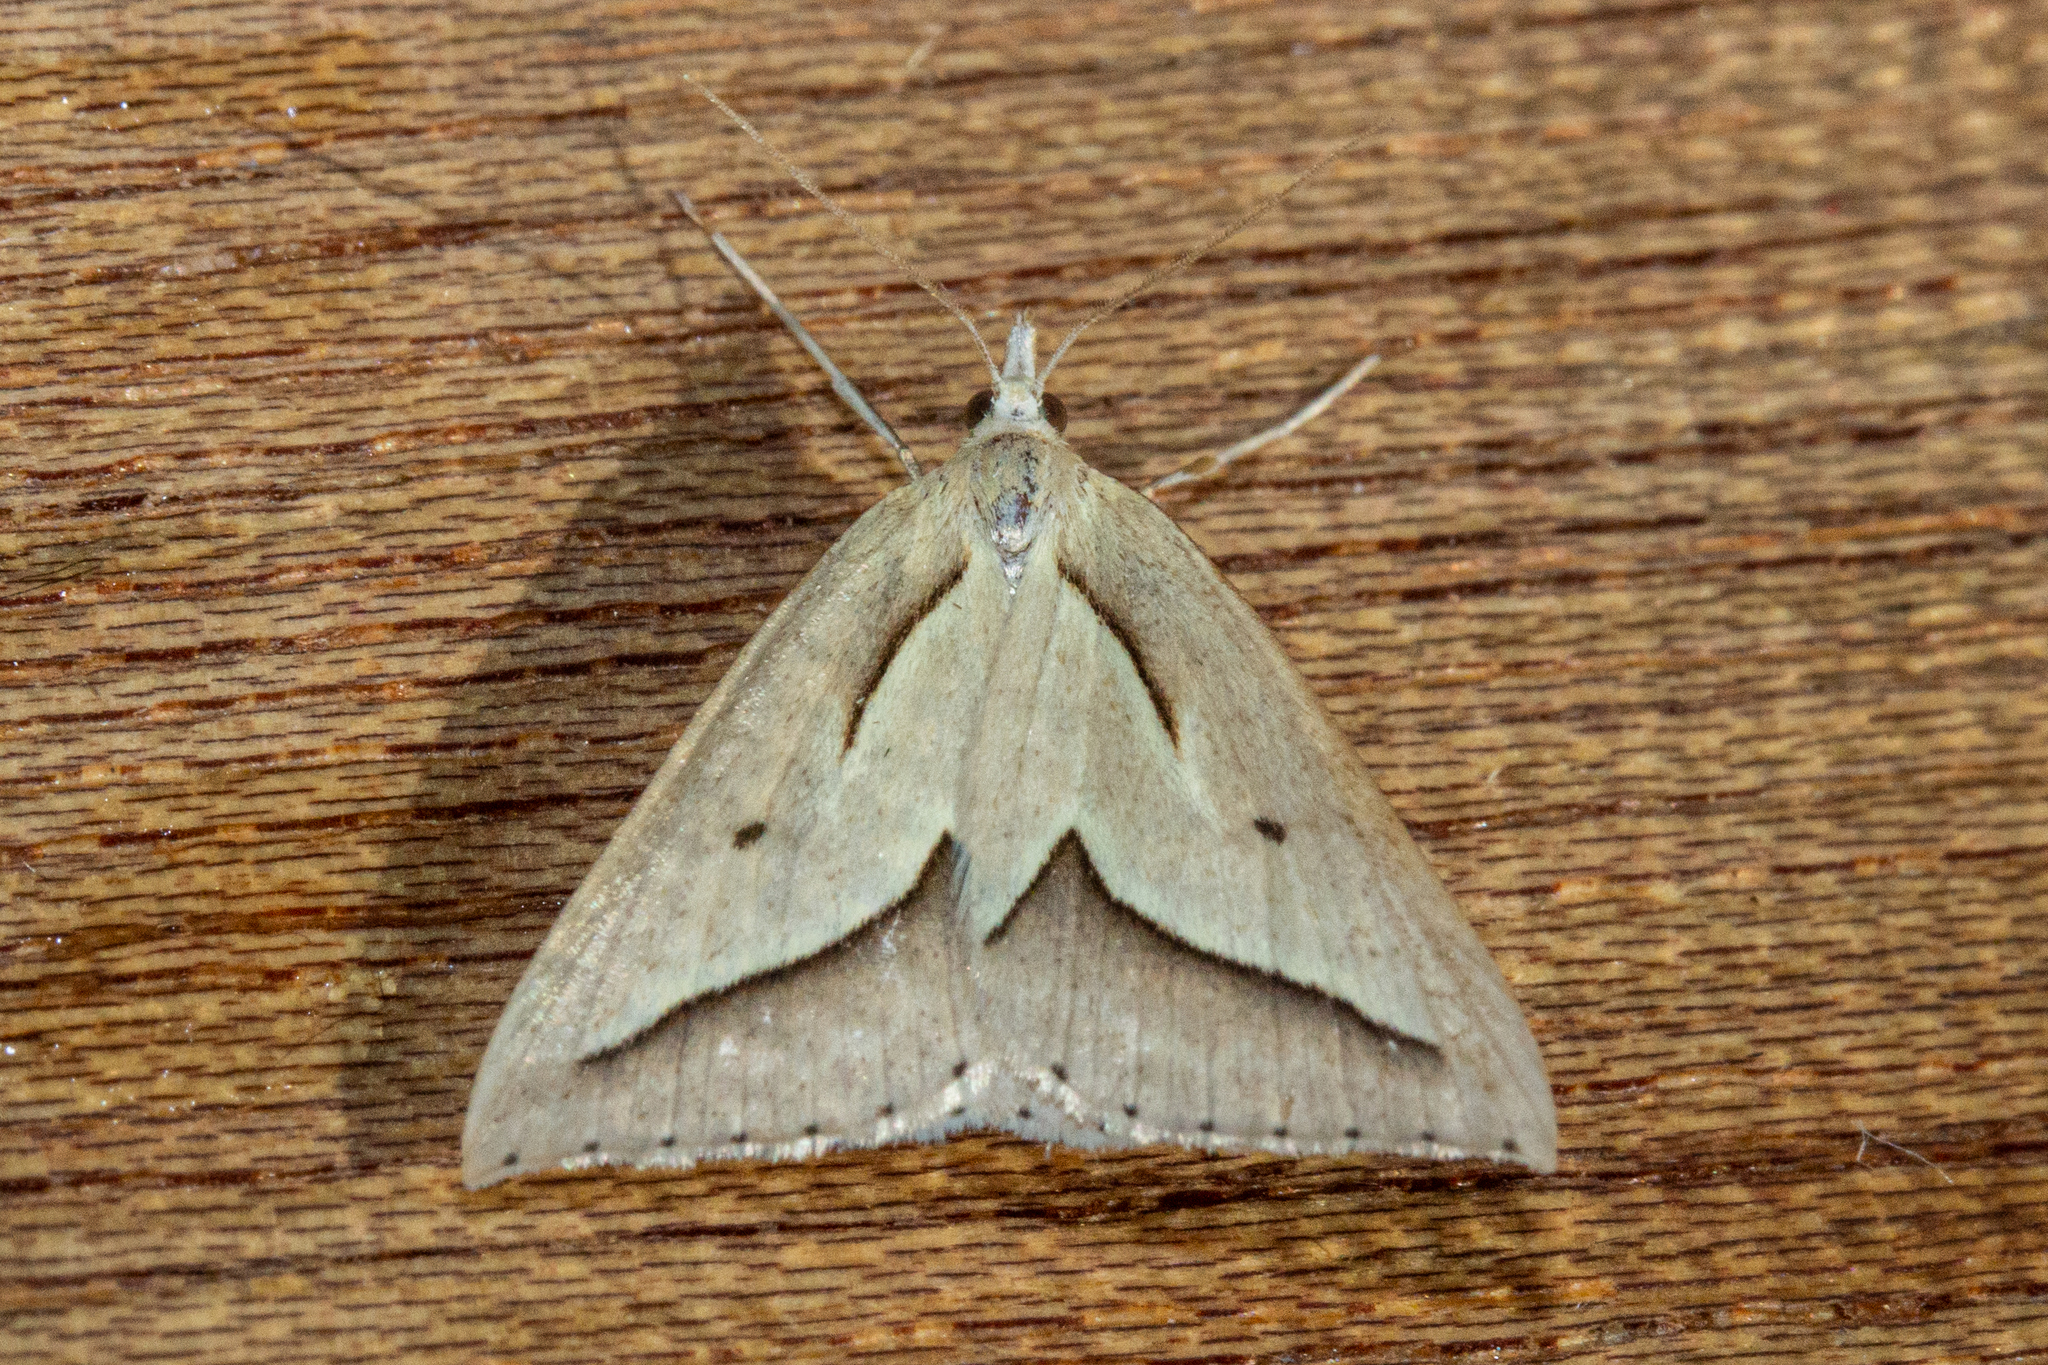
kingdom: Animalia
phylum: Arthropoda
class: Insecta
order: Lepidoptera
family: Geometridae
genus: Samana
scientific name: Samana acutata
